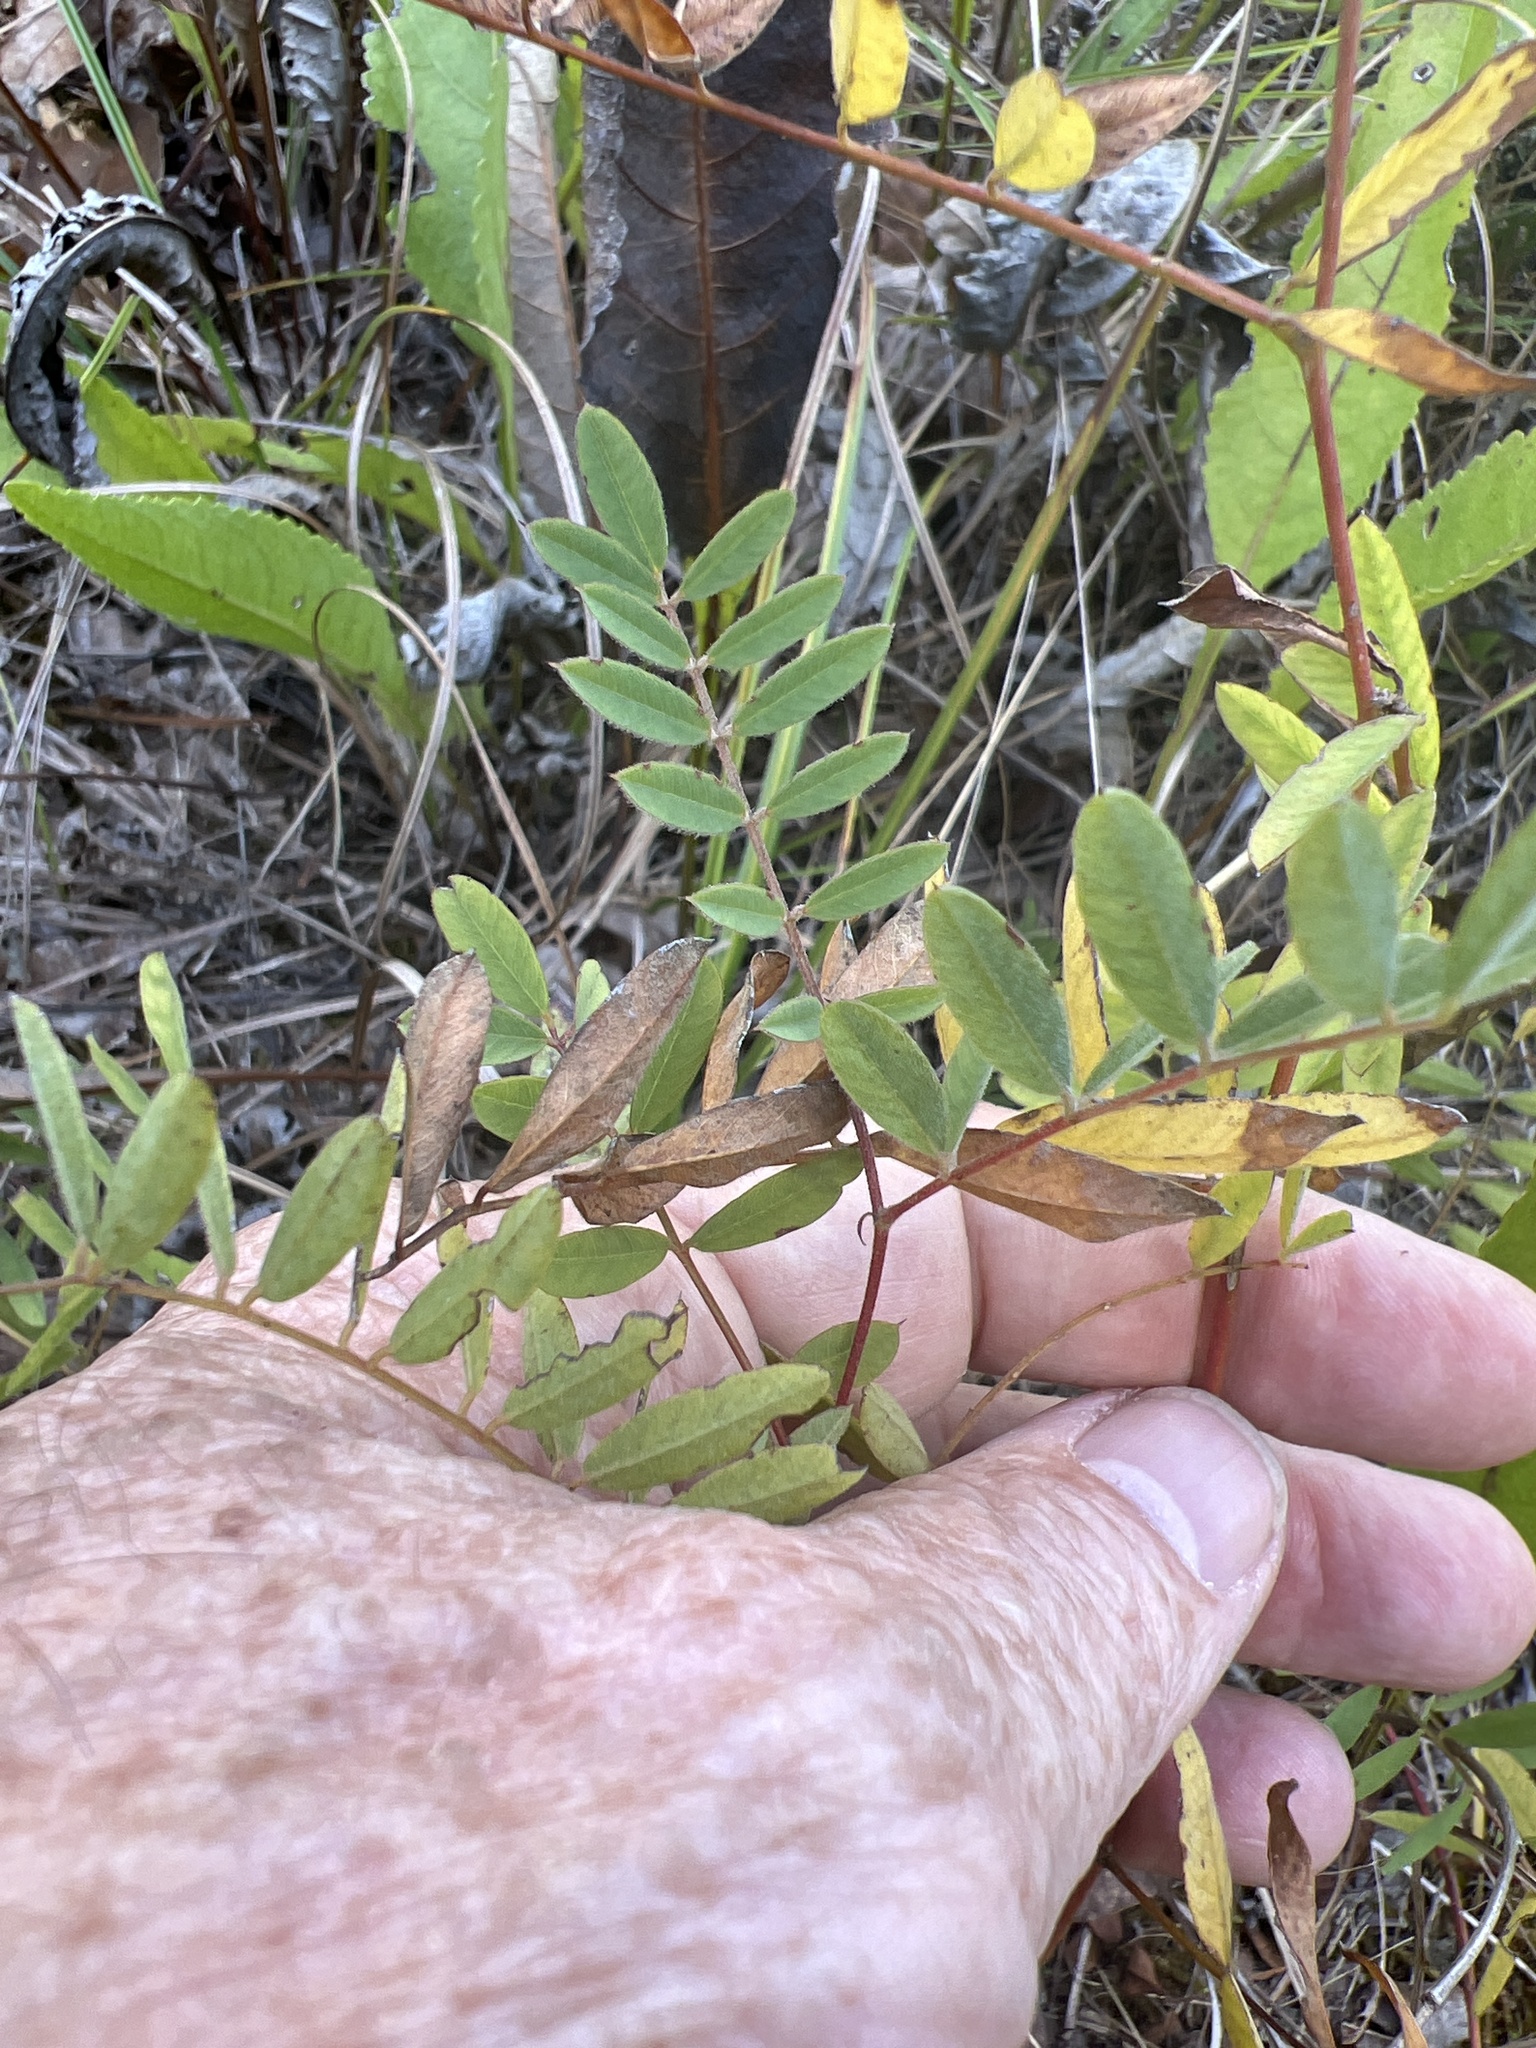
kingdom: Plantae
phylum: Tracheophyta
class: Magnoliopsida
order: Fabales
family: Fabaceae
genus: Tephrosia
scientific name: Tephrosia virginiana
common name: Rabbit-pea
